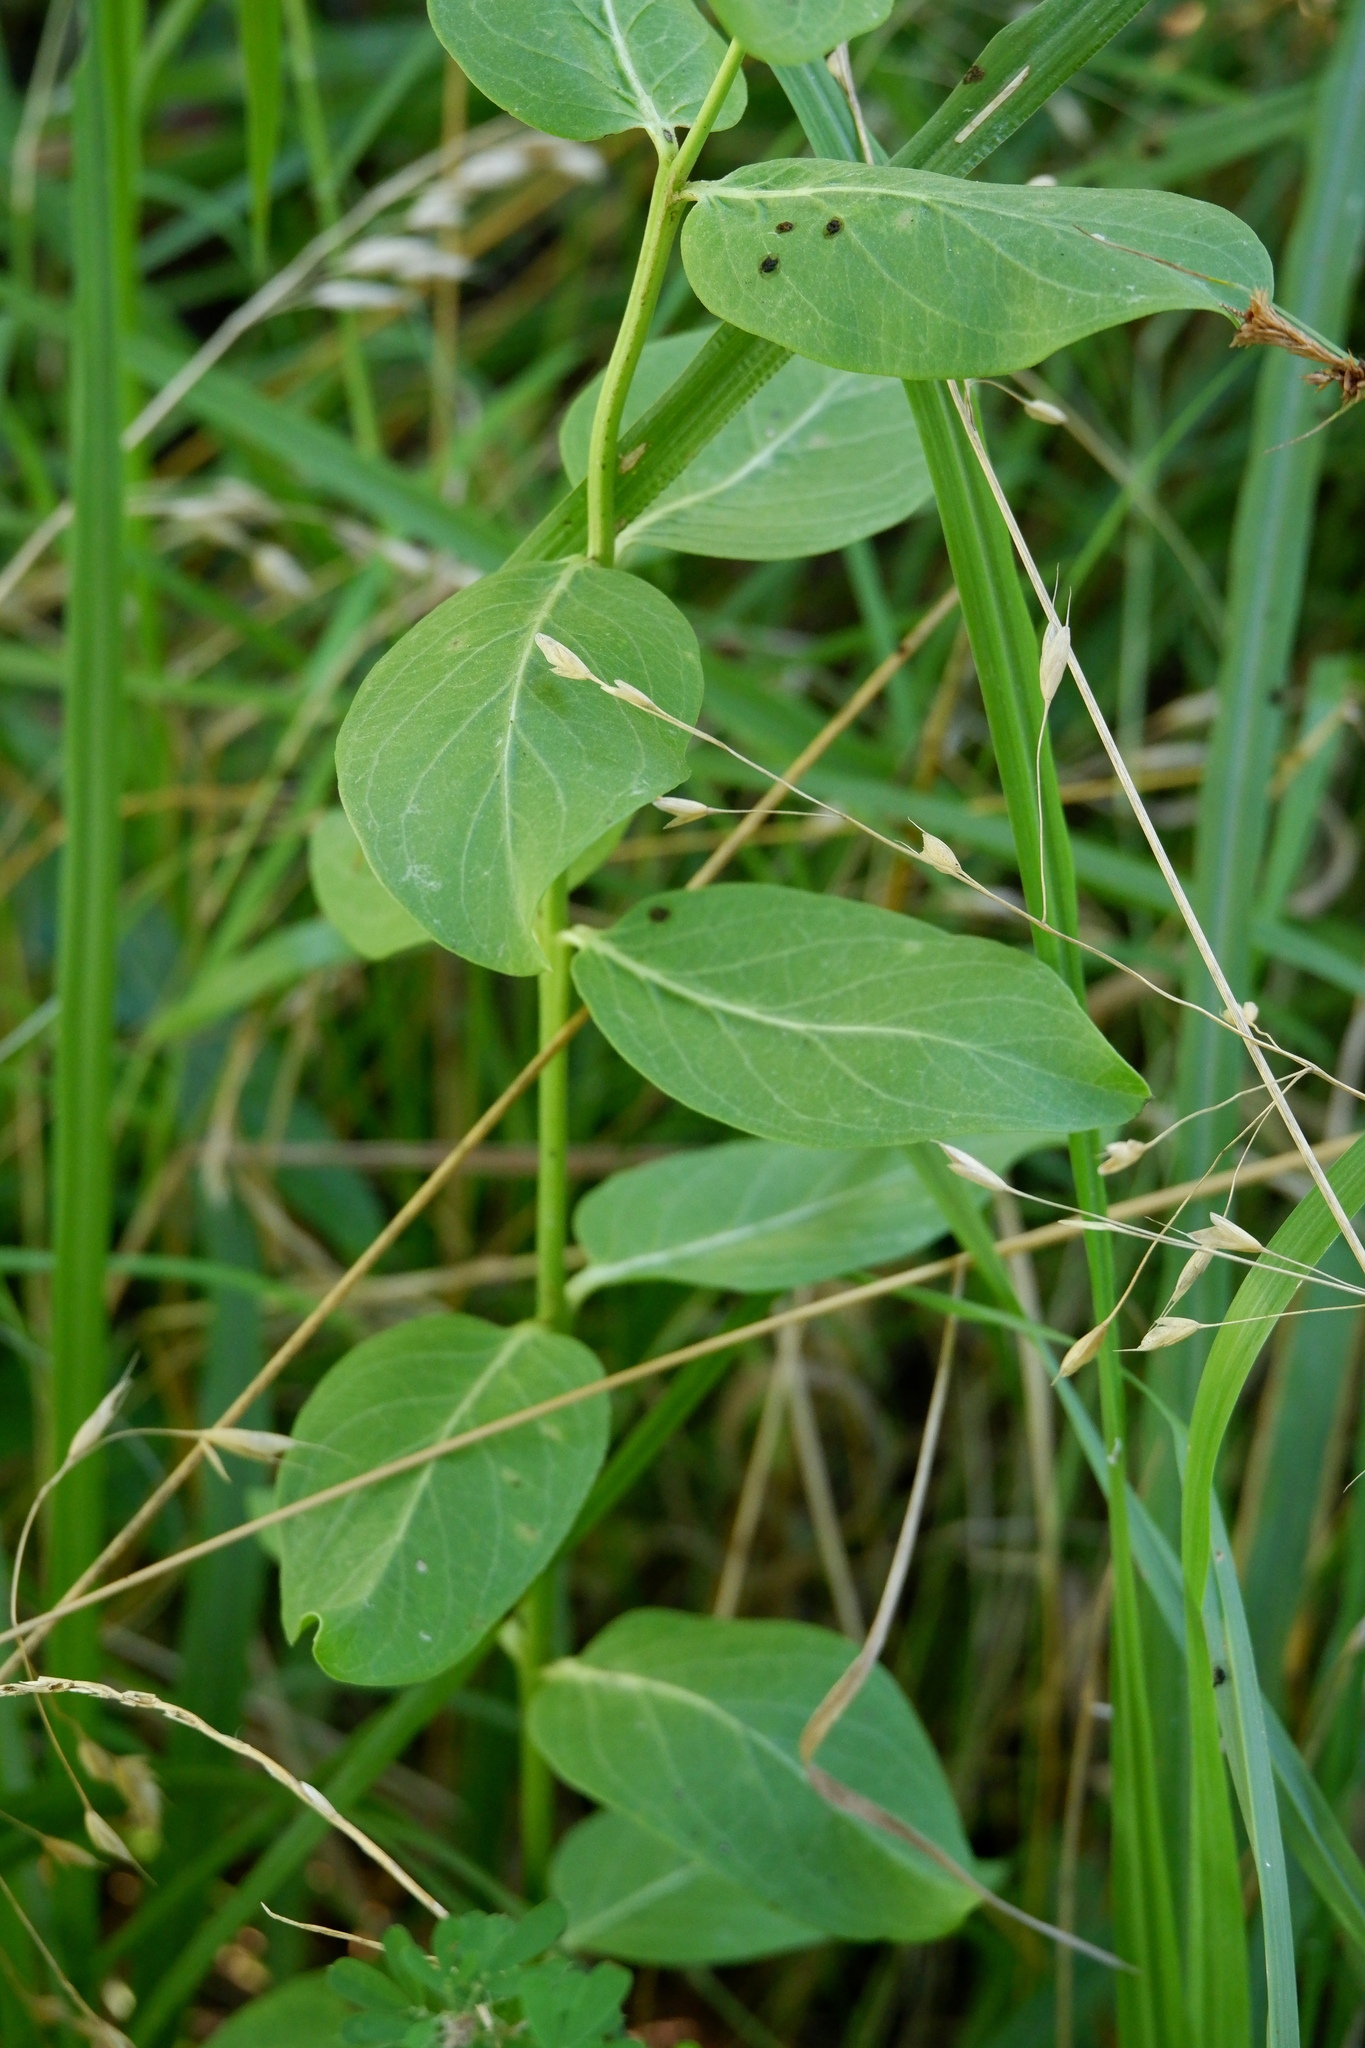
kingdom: Plantae
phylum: Tracheophyta
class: Magnoliopsida
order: Gentianales
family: Apocynaceae
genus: Asclepias
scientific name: Asclepias viridis
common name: Antelope-horns
